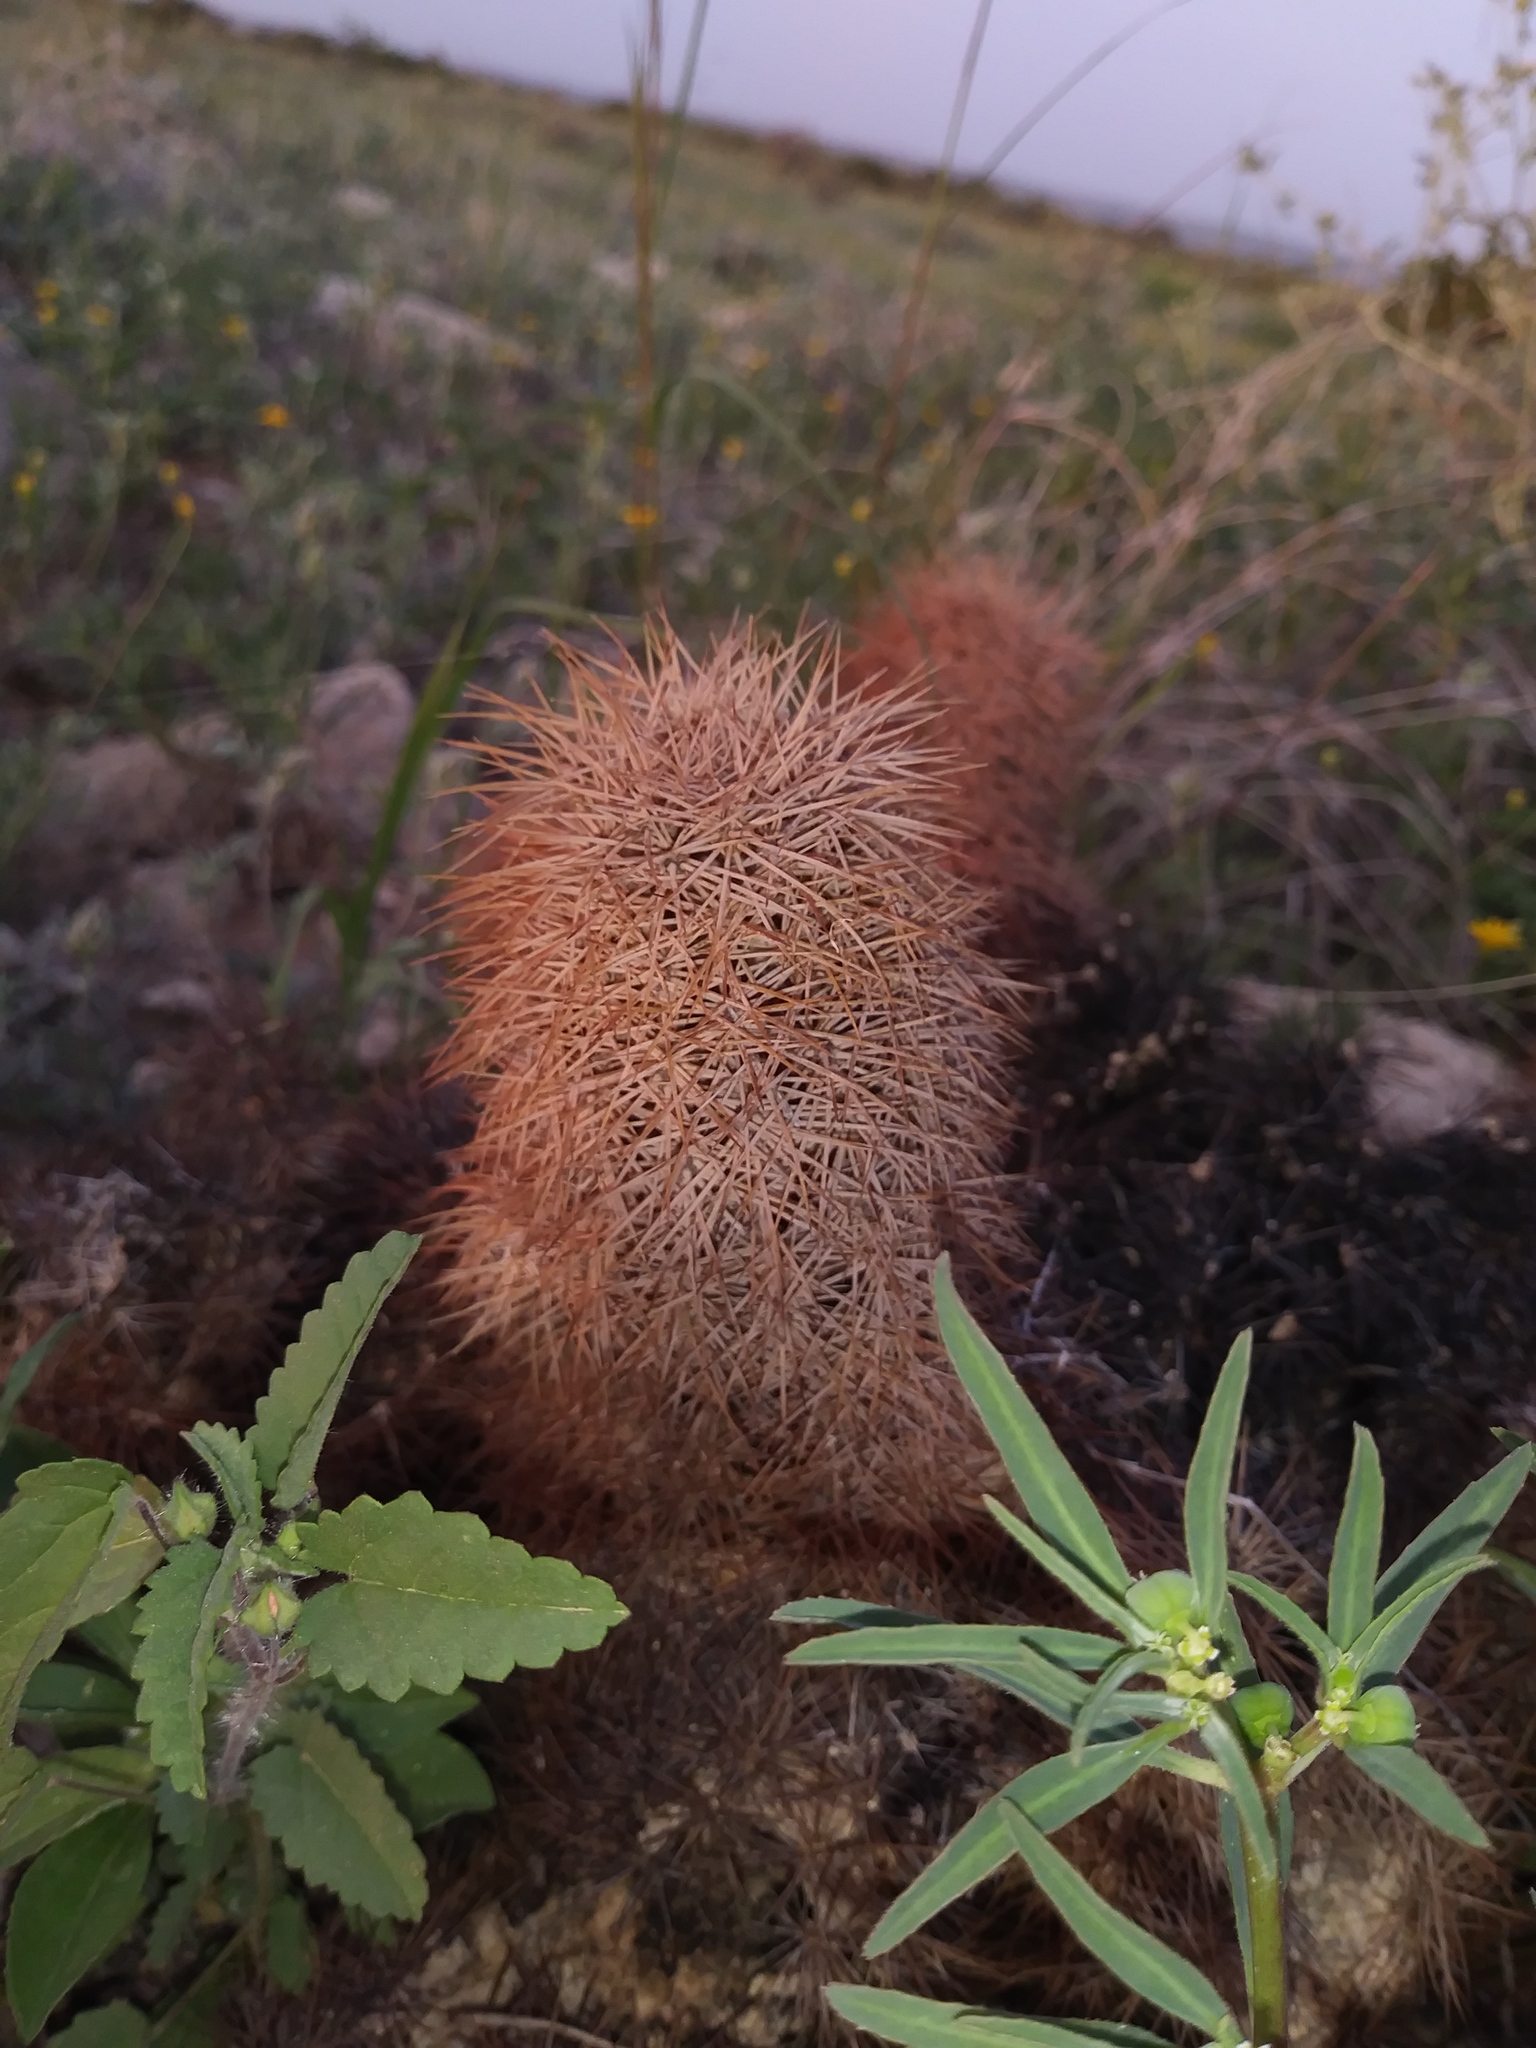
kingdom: Plantae
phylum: Tracheophyta
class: Magnoliopsida
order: Caryophyllales
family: Cactaceae
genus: Echinocereus
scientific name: Echinocereus dasyacanthus
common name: Spiny hedgehog cactus
